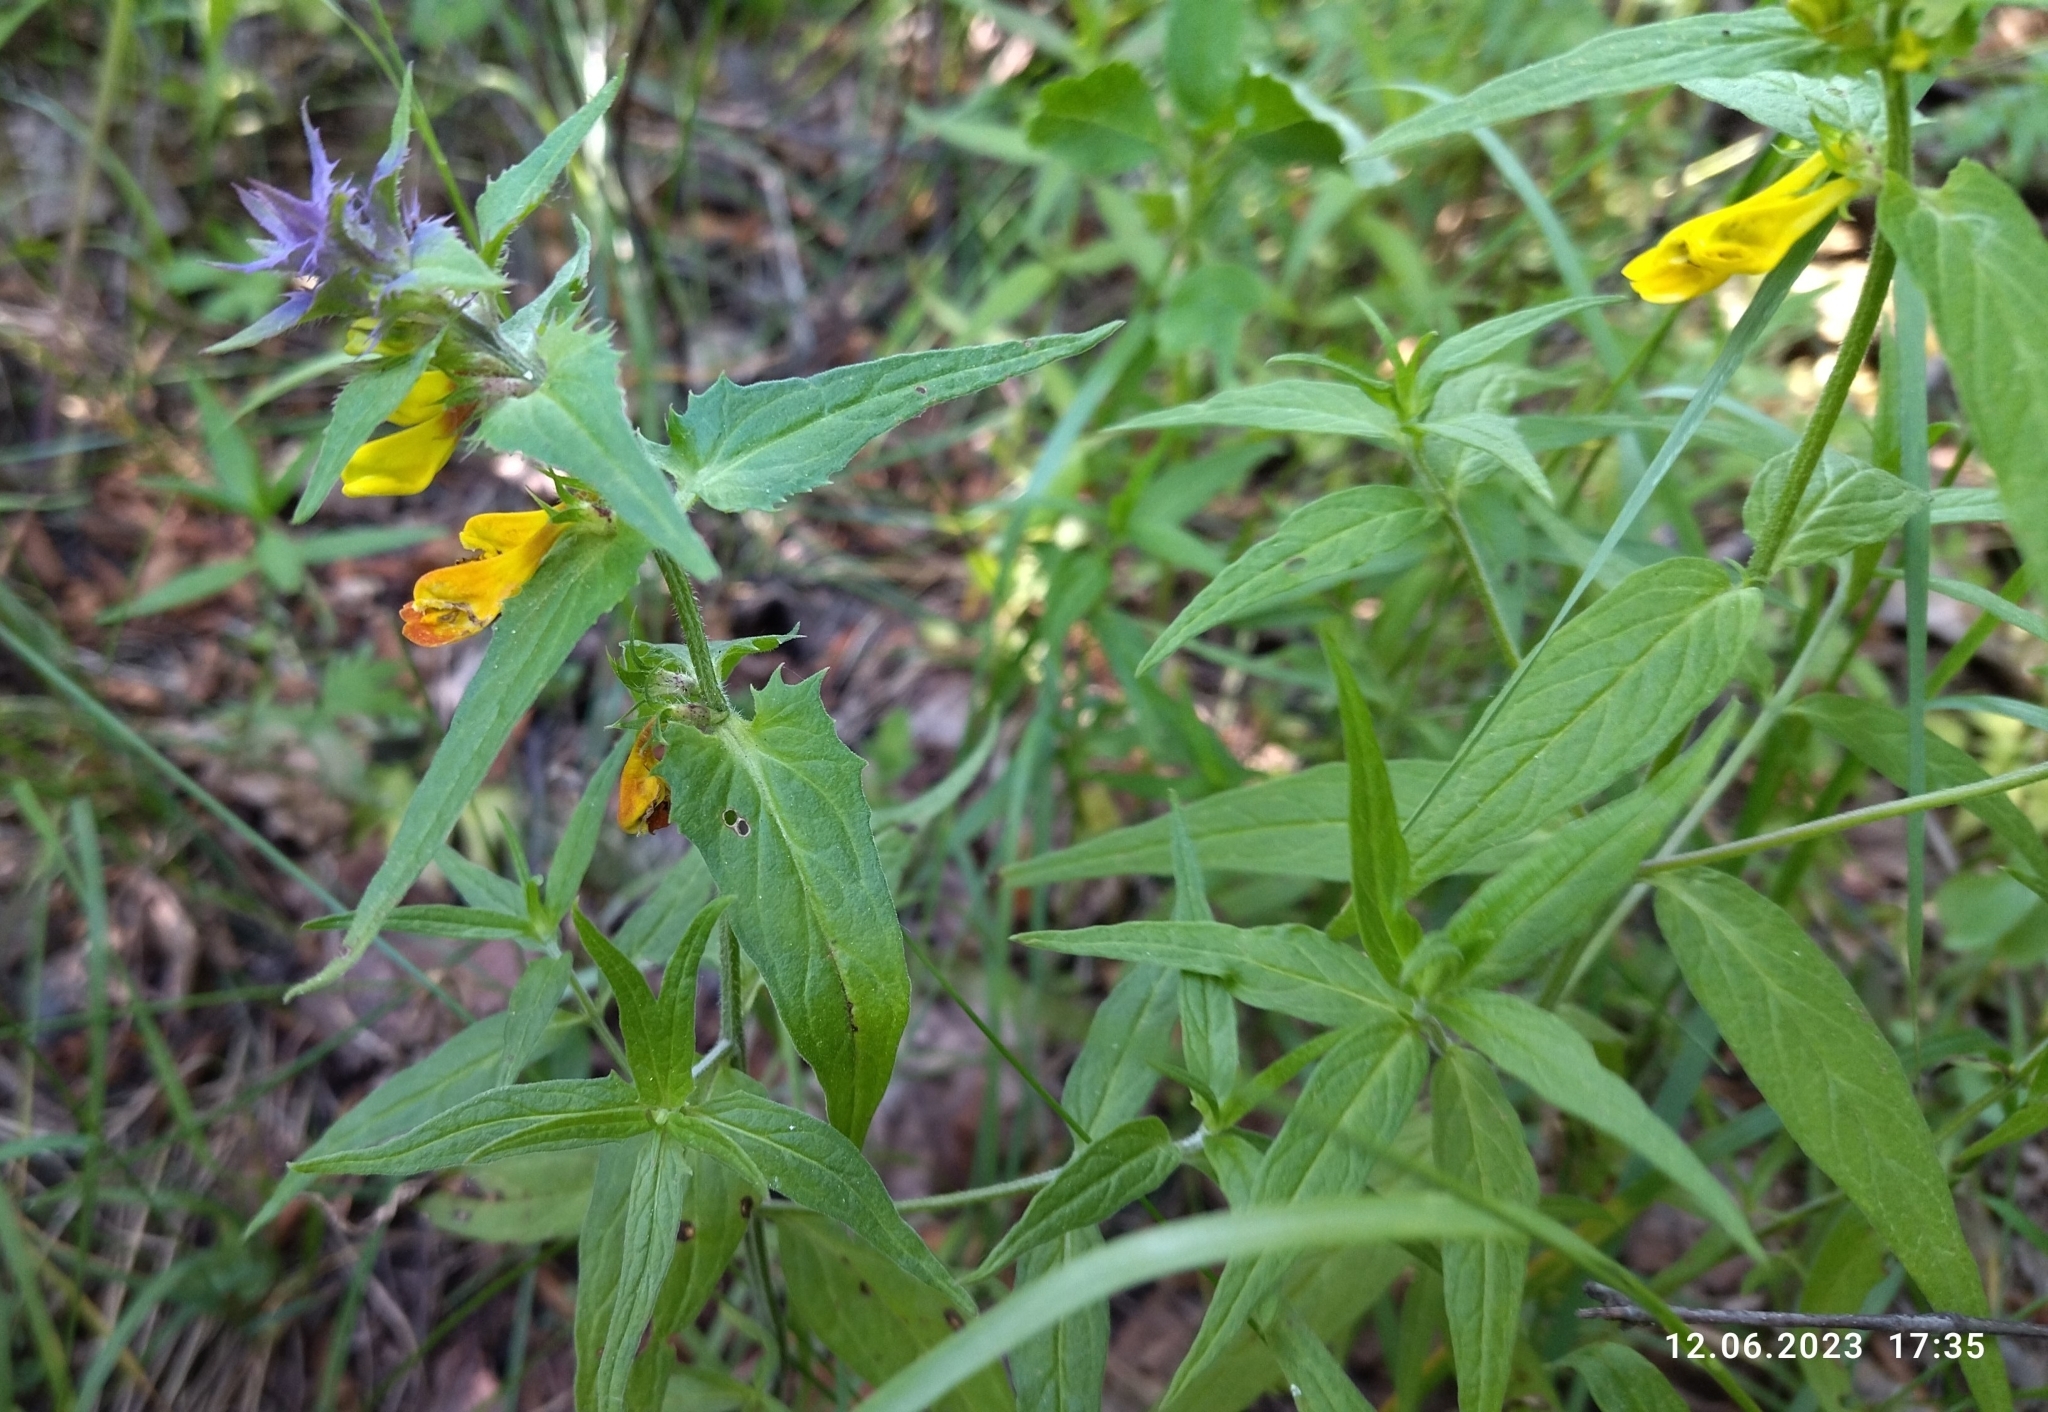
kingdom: Plantae
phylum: Tracheophyta
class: Magnoliopsida
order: Lamiales
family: Orobanchaceae
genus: Melampyrum
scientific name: Melampyrum nemorosum
